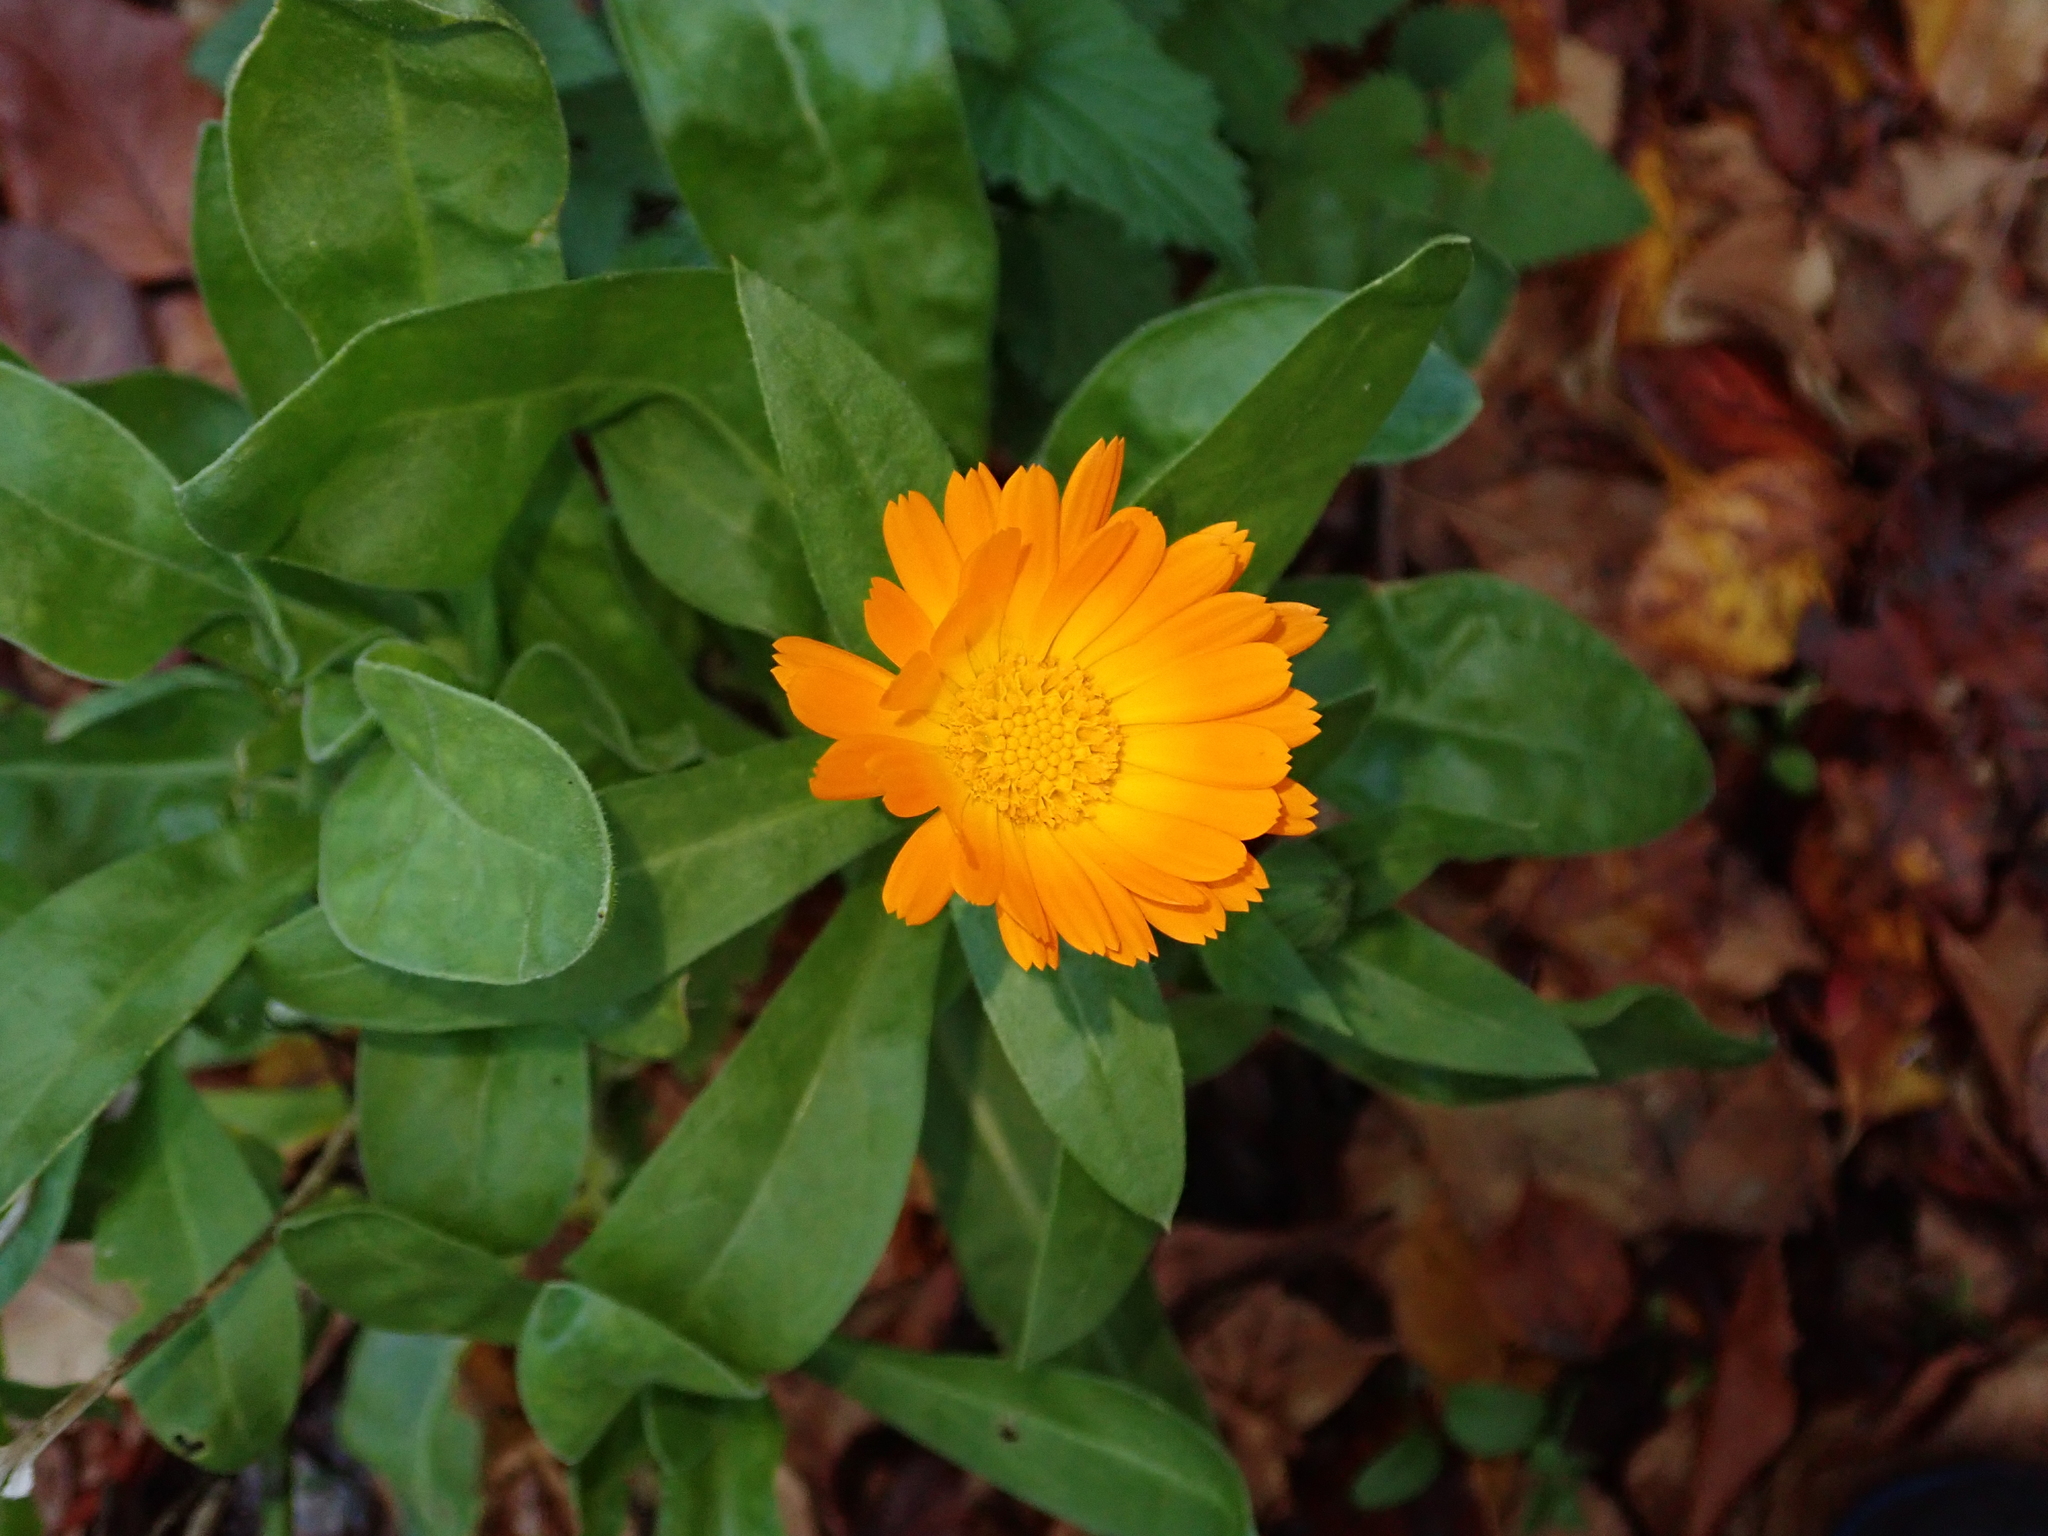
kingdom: Plantae
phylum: Tracheophyta
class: Magnoliopsida
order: Asterales
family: Asteraceae
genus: Calendula
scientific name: Calendula officinalis
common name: Pot marigold
